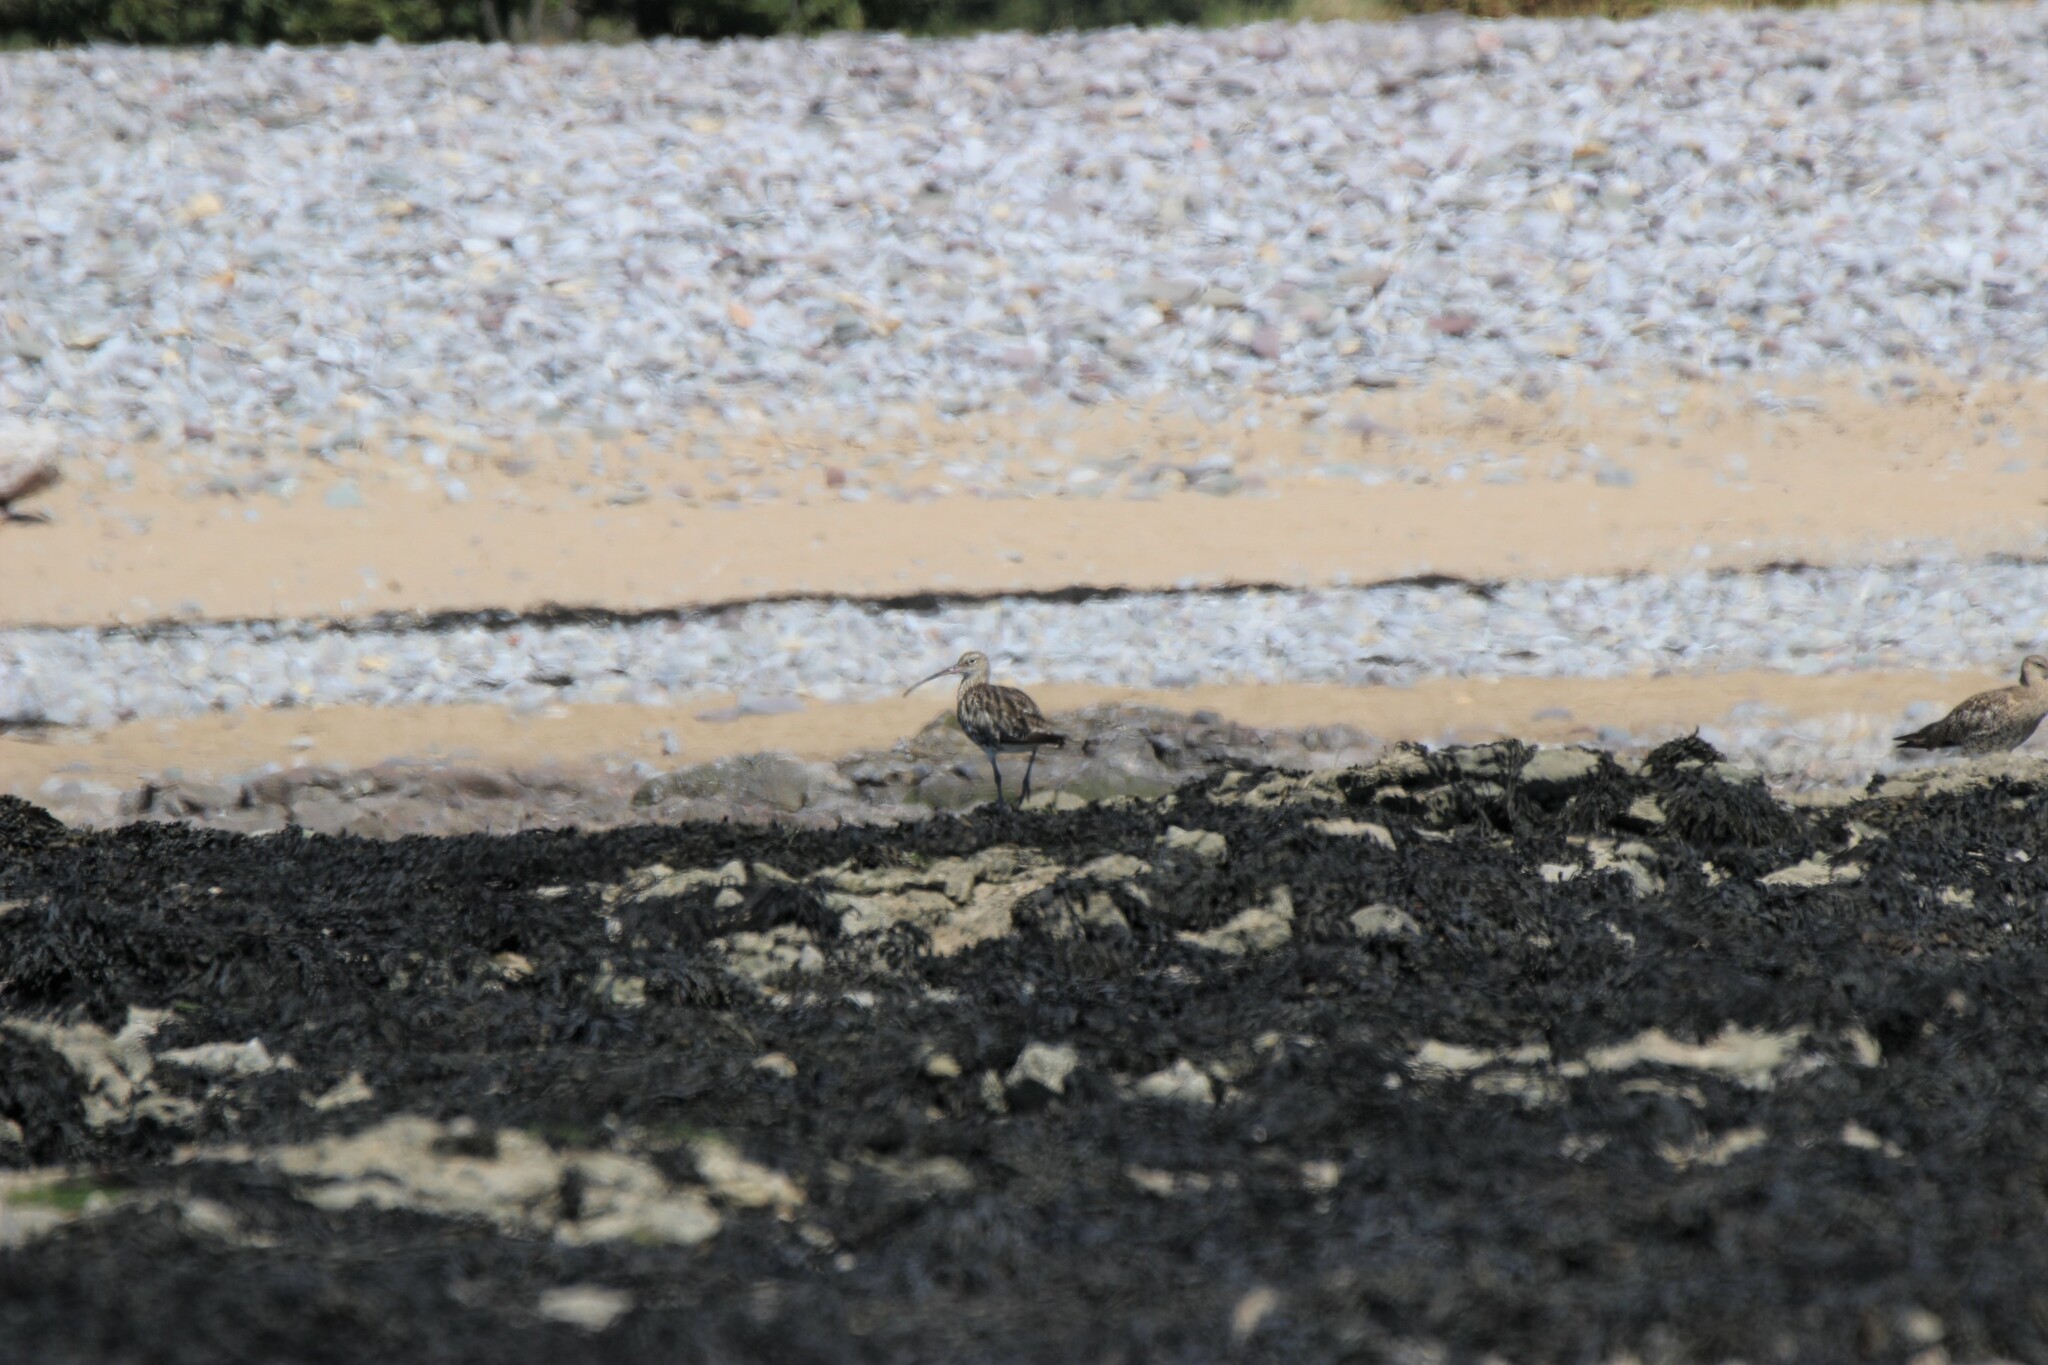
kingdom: Animalia
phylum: Chordata
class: Aves
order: Charadriiformes
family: Scolopacidae
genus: Numenius
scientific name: Numenius arquata
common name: Eurasian curlew
